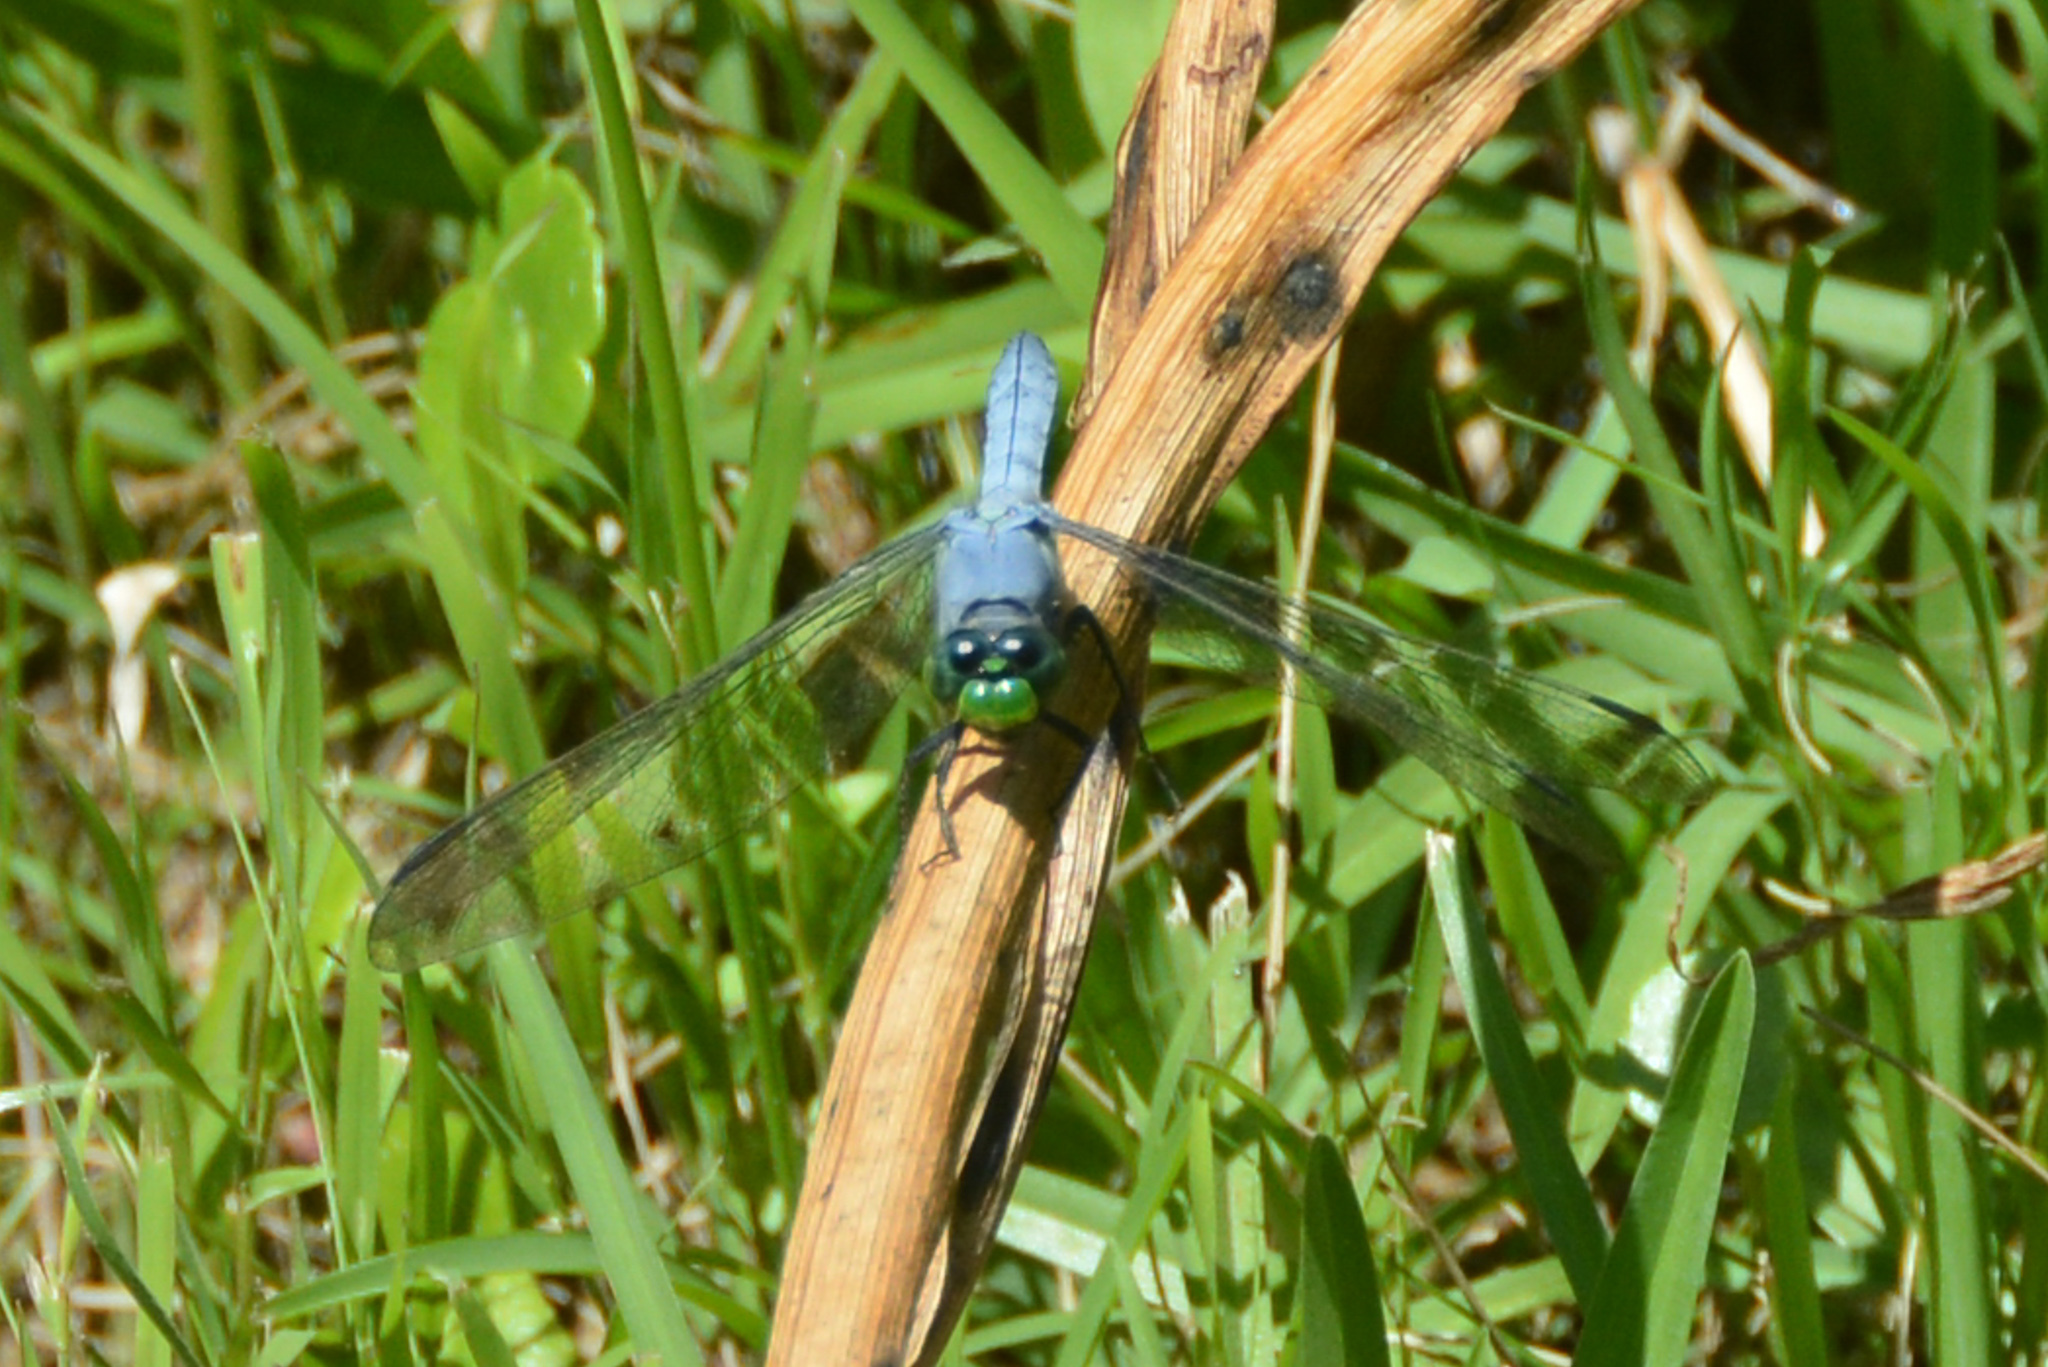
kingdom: Animalia
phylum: Arthropoda
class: Insecta
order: Odonata
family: Libellulidae
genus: Erythemis
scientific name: Erythemis simplicicollis
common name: Eastern pondhawk
